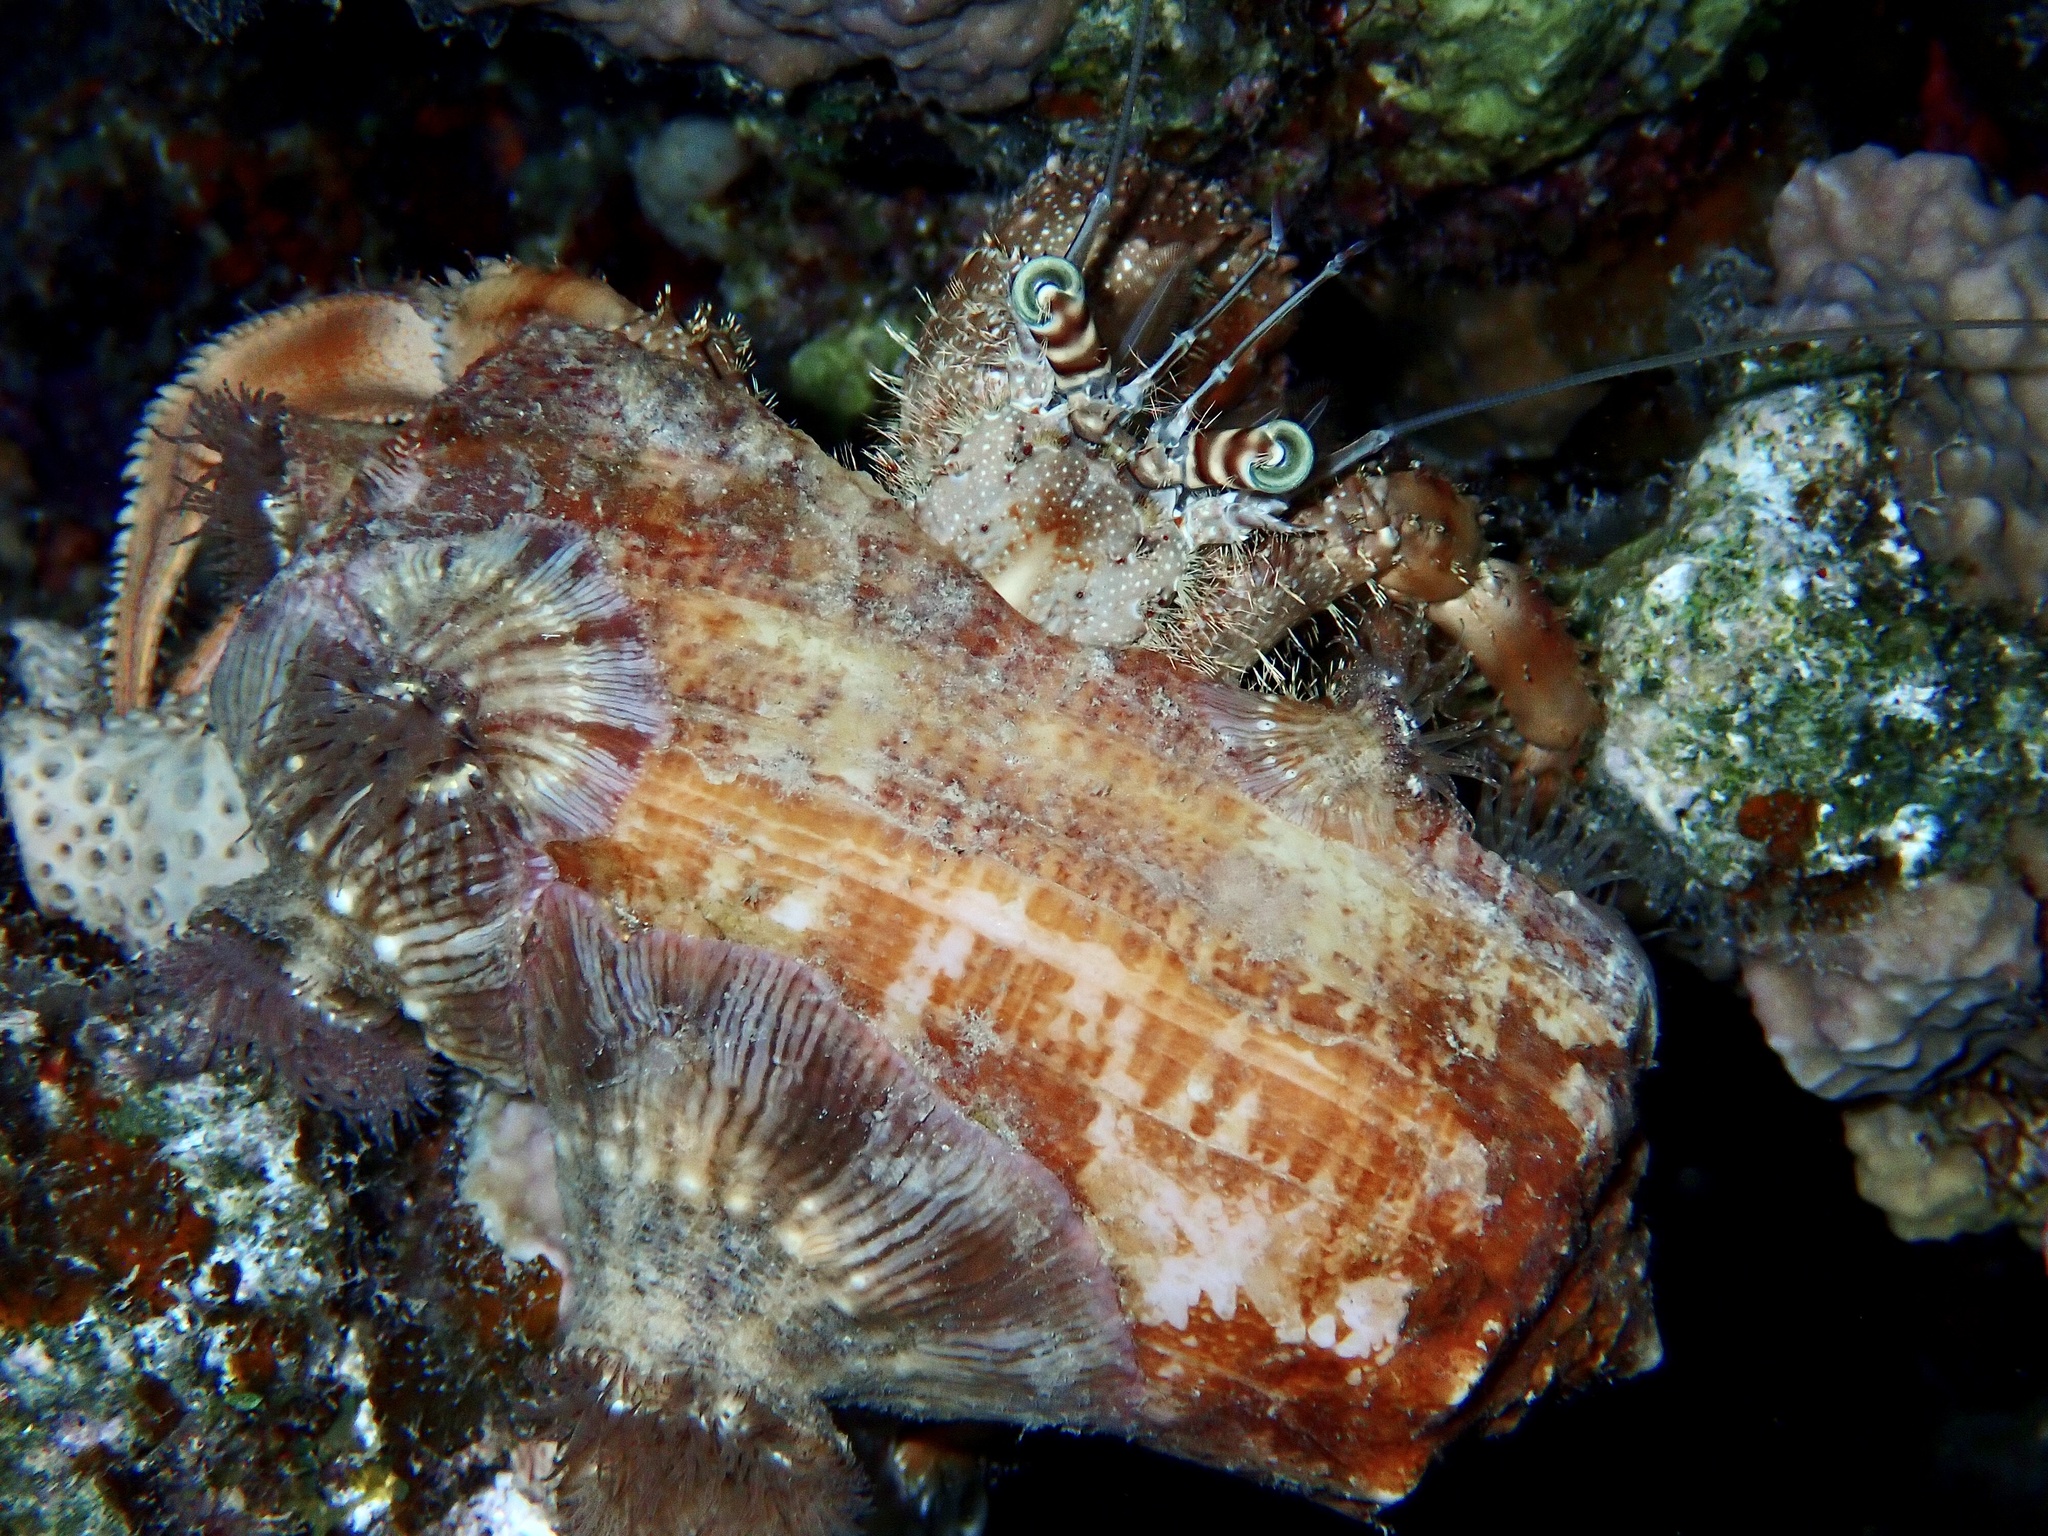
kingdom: Animalia
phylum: Arthropoda
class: Malacostraca
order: Decapoda
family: Diogenidae
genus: Dardanus
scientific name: Dardanus tinctor
